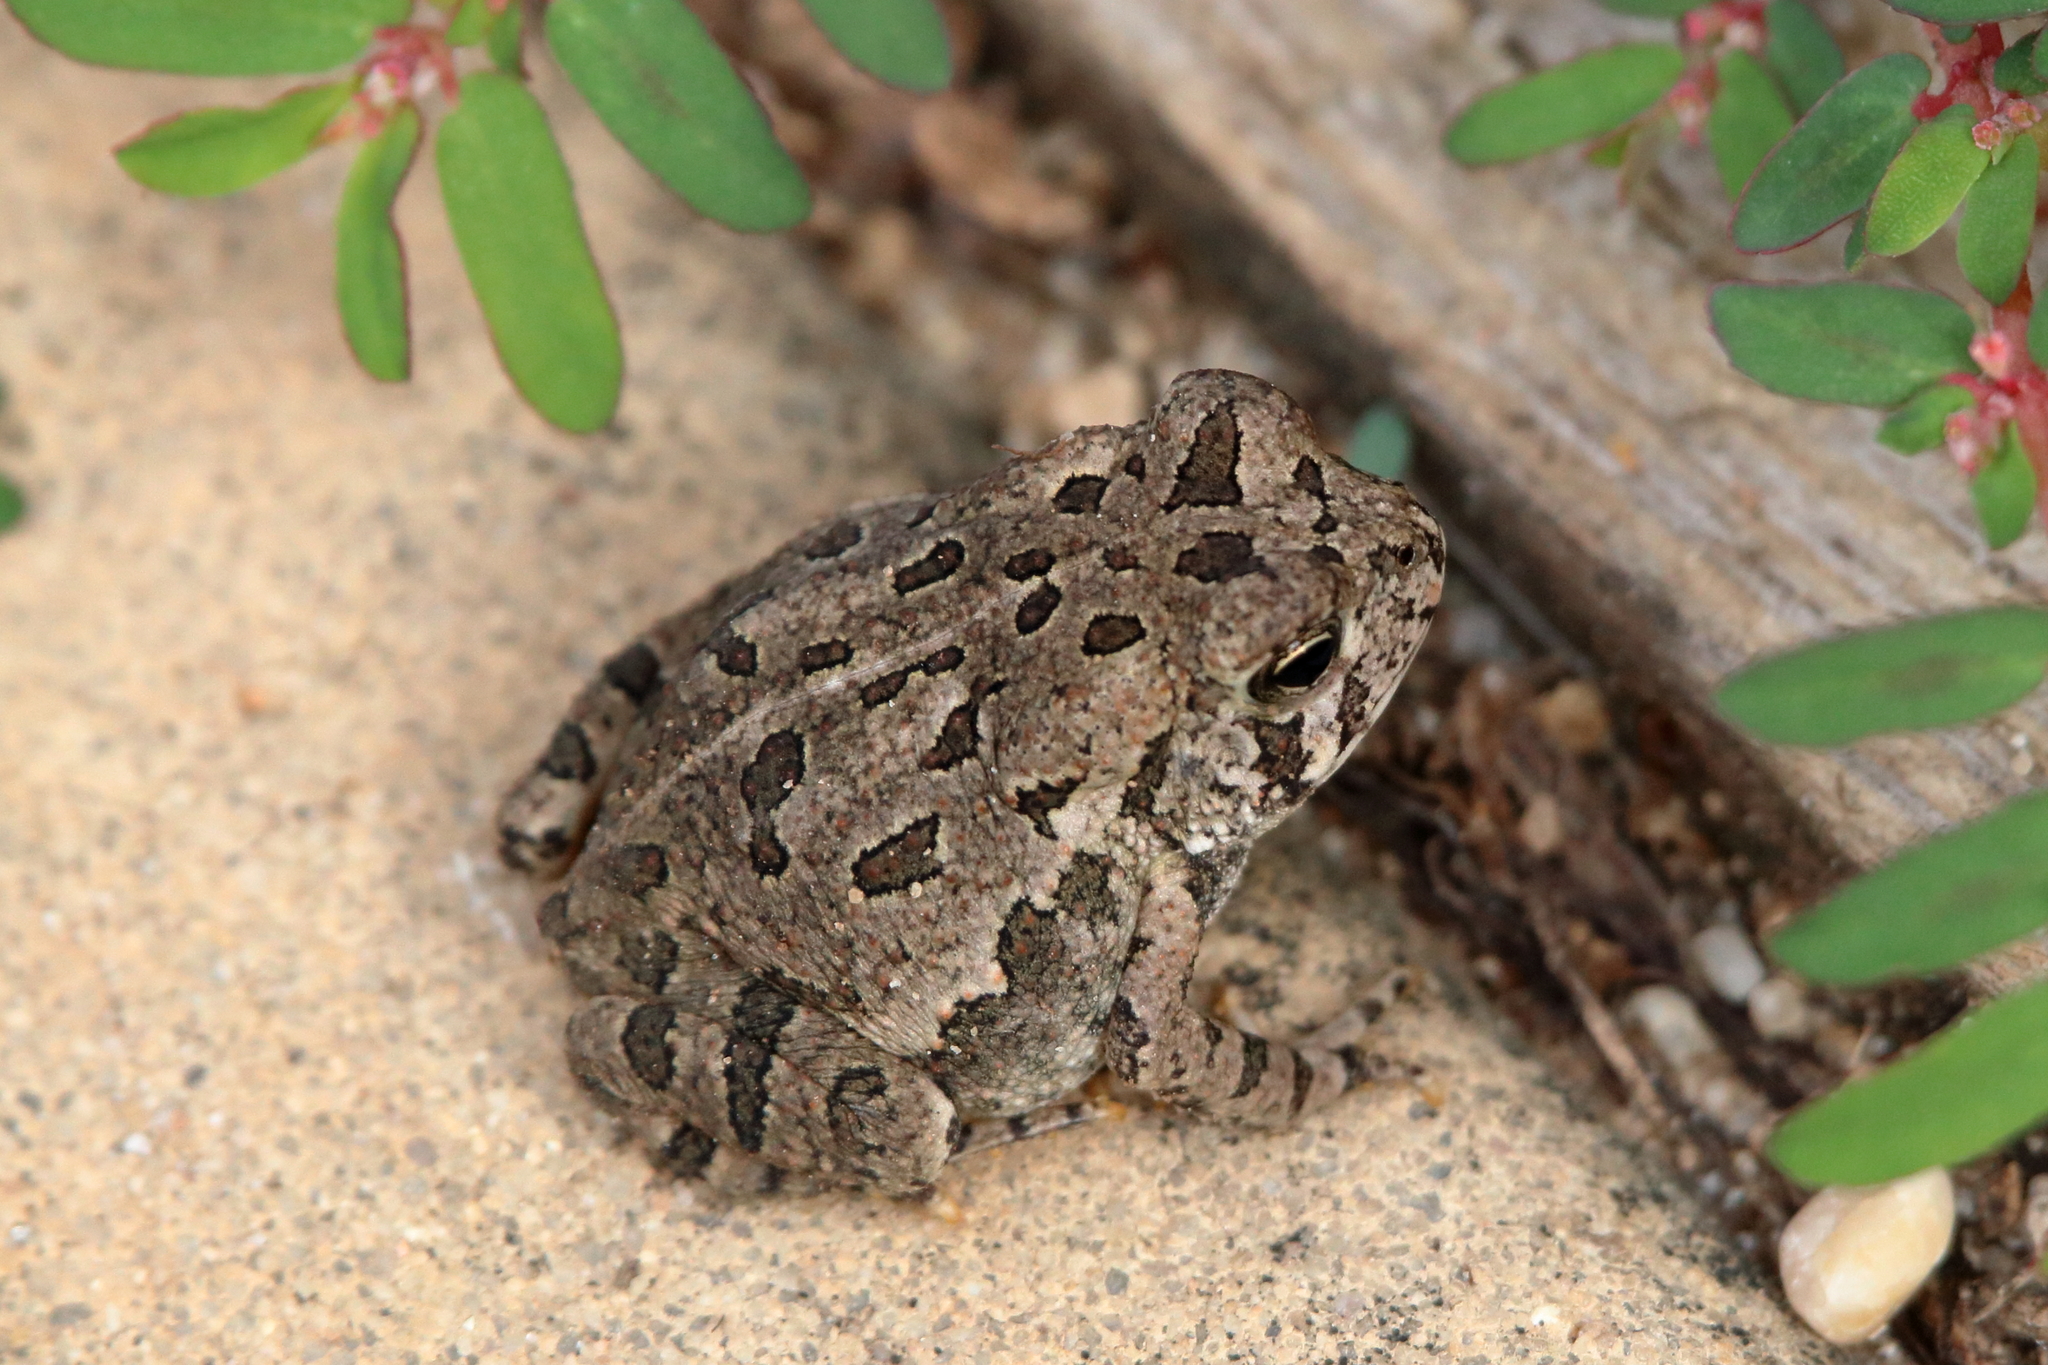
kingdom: Animalia
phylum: Chordata
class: Amphibia
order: Anura
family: Bufonidae
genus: Anaxyrus
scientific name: Anaxyrus fowleri
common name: Fowler's toad
